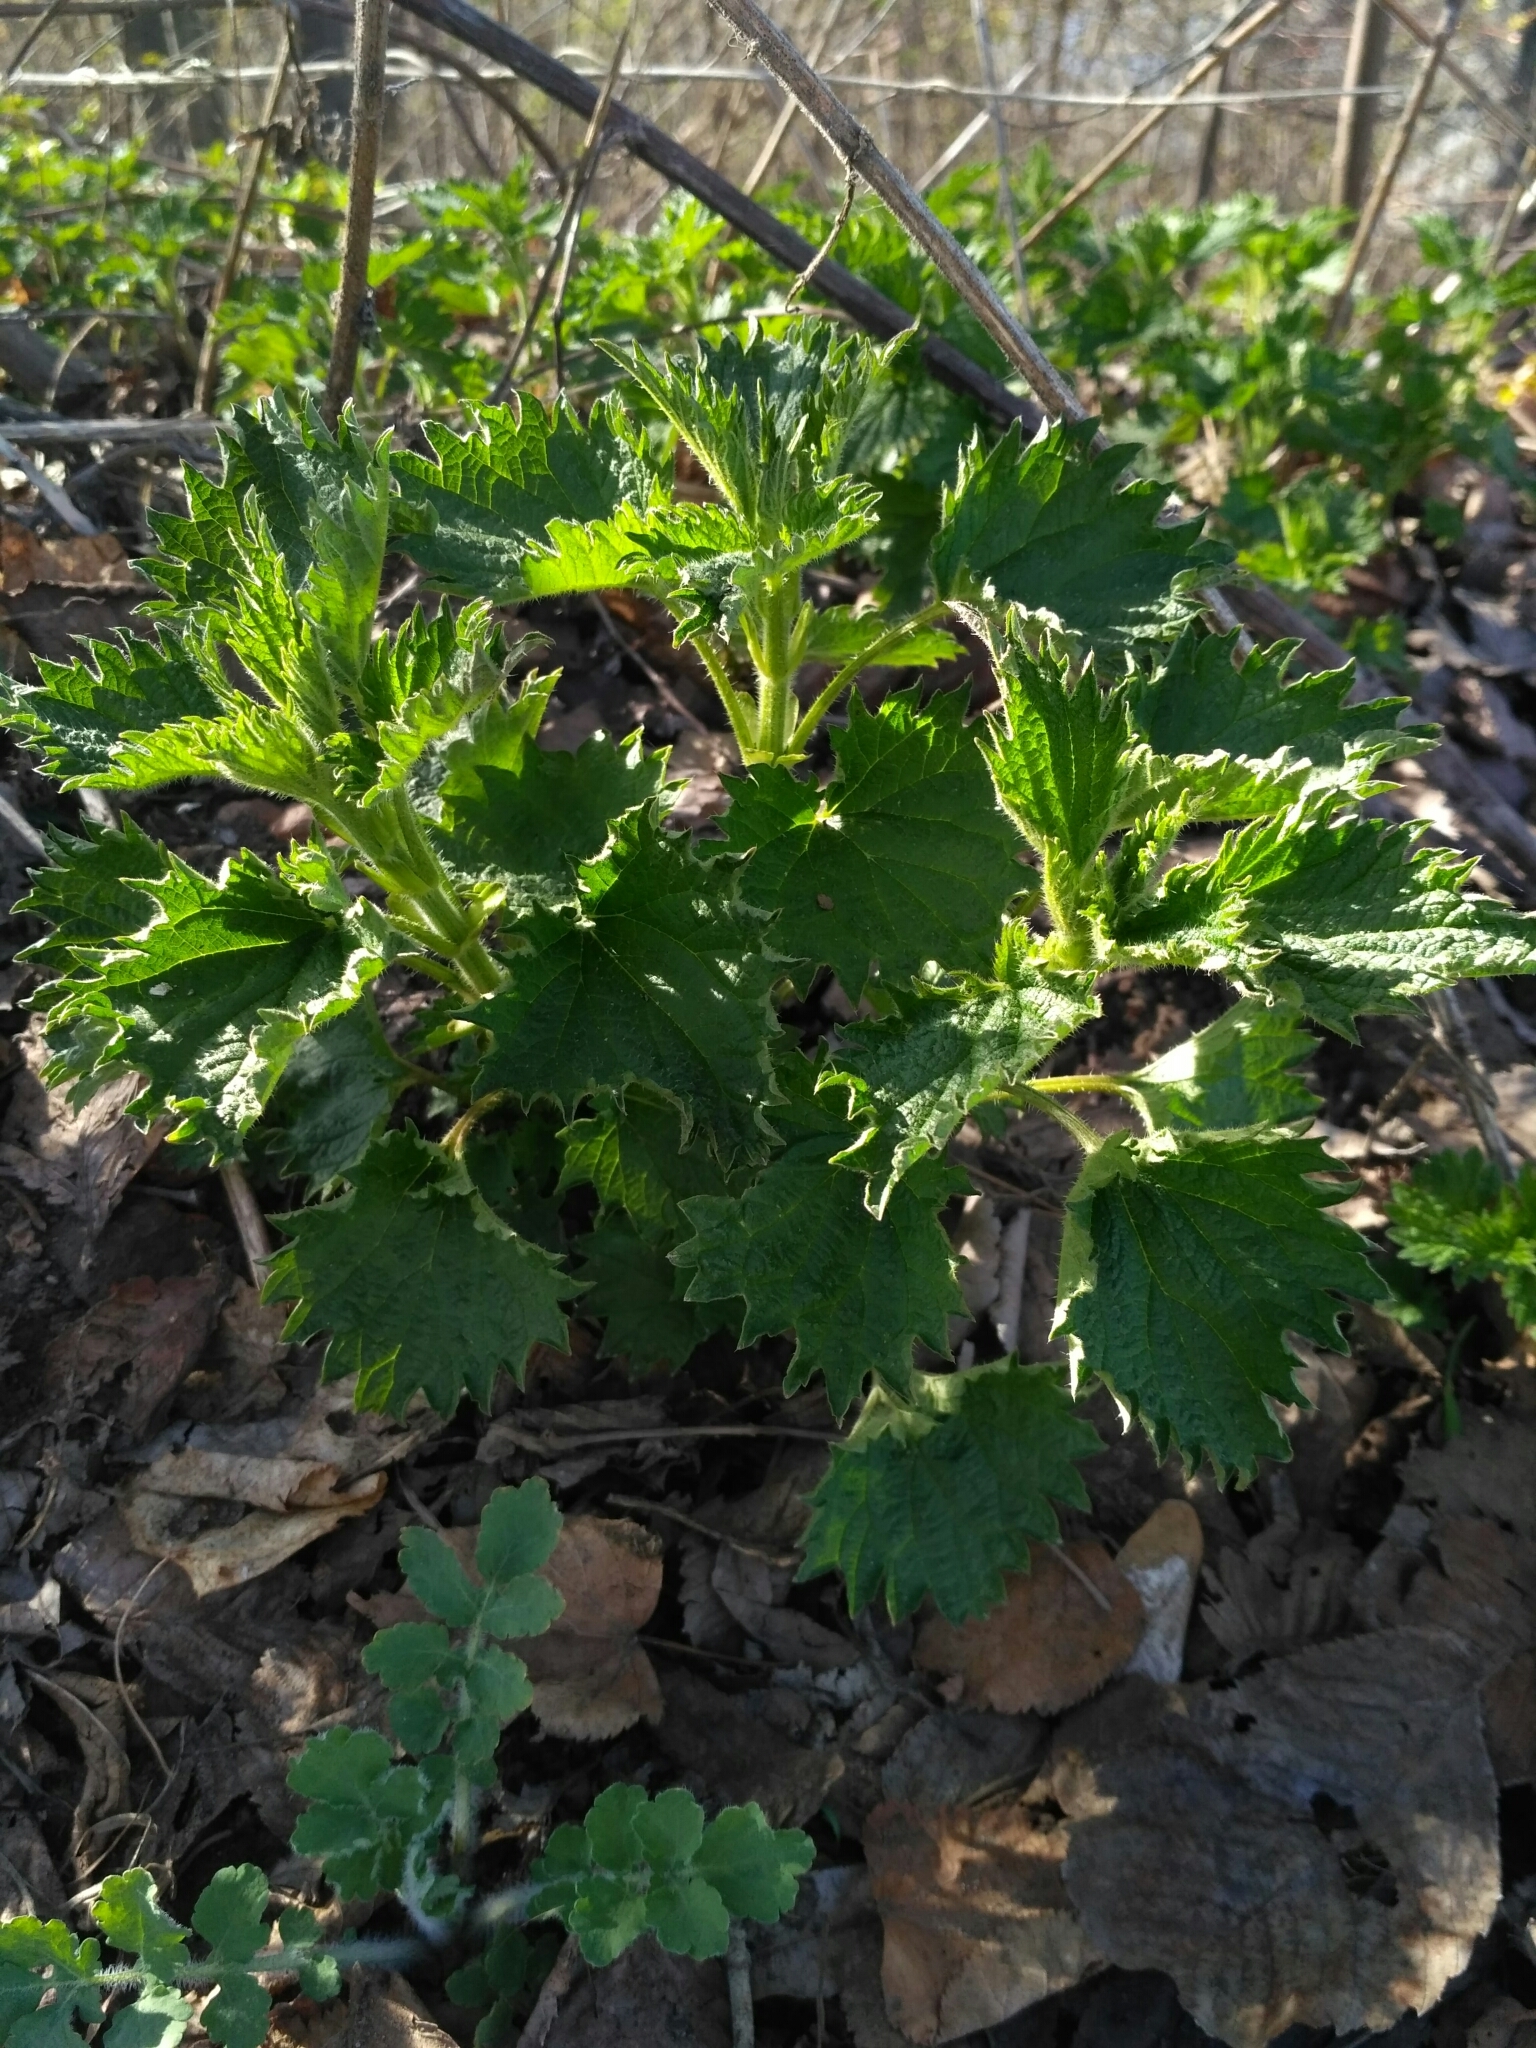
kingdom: Plantae
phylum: Tracheophyta
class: Magnoliopsida
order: Rosales
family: Urticaceae
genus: Urtica
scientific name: Urtica dioica
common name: Common nettle
